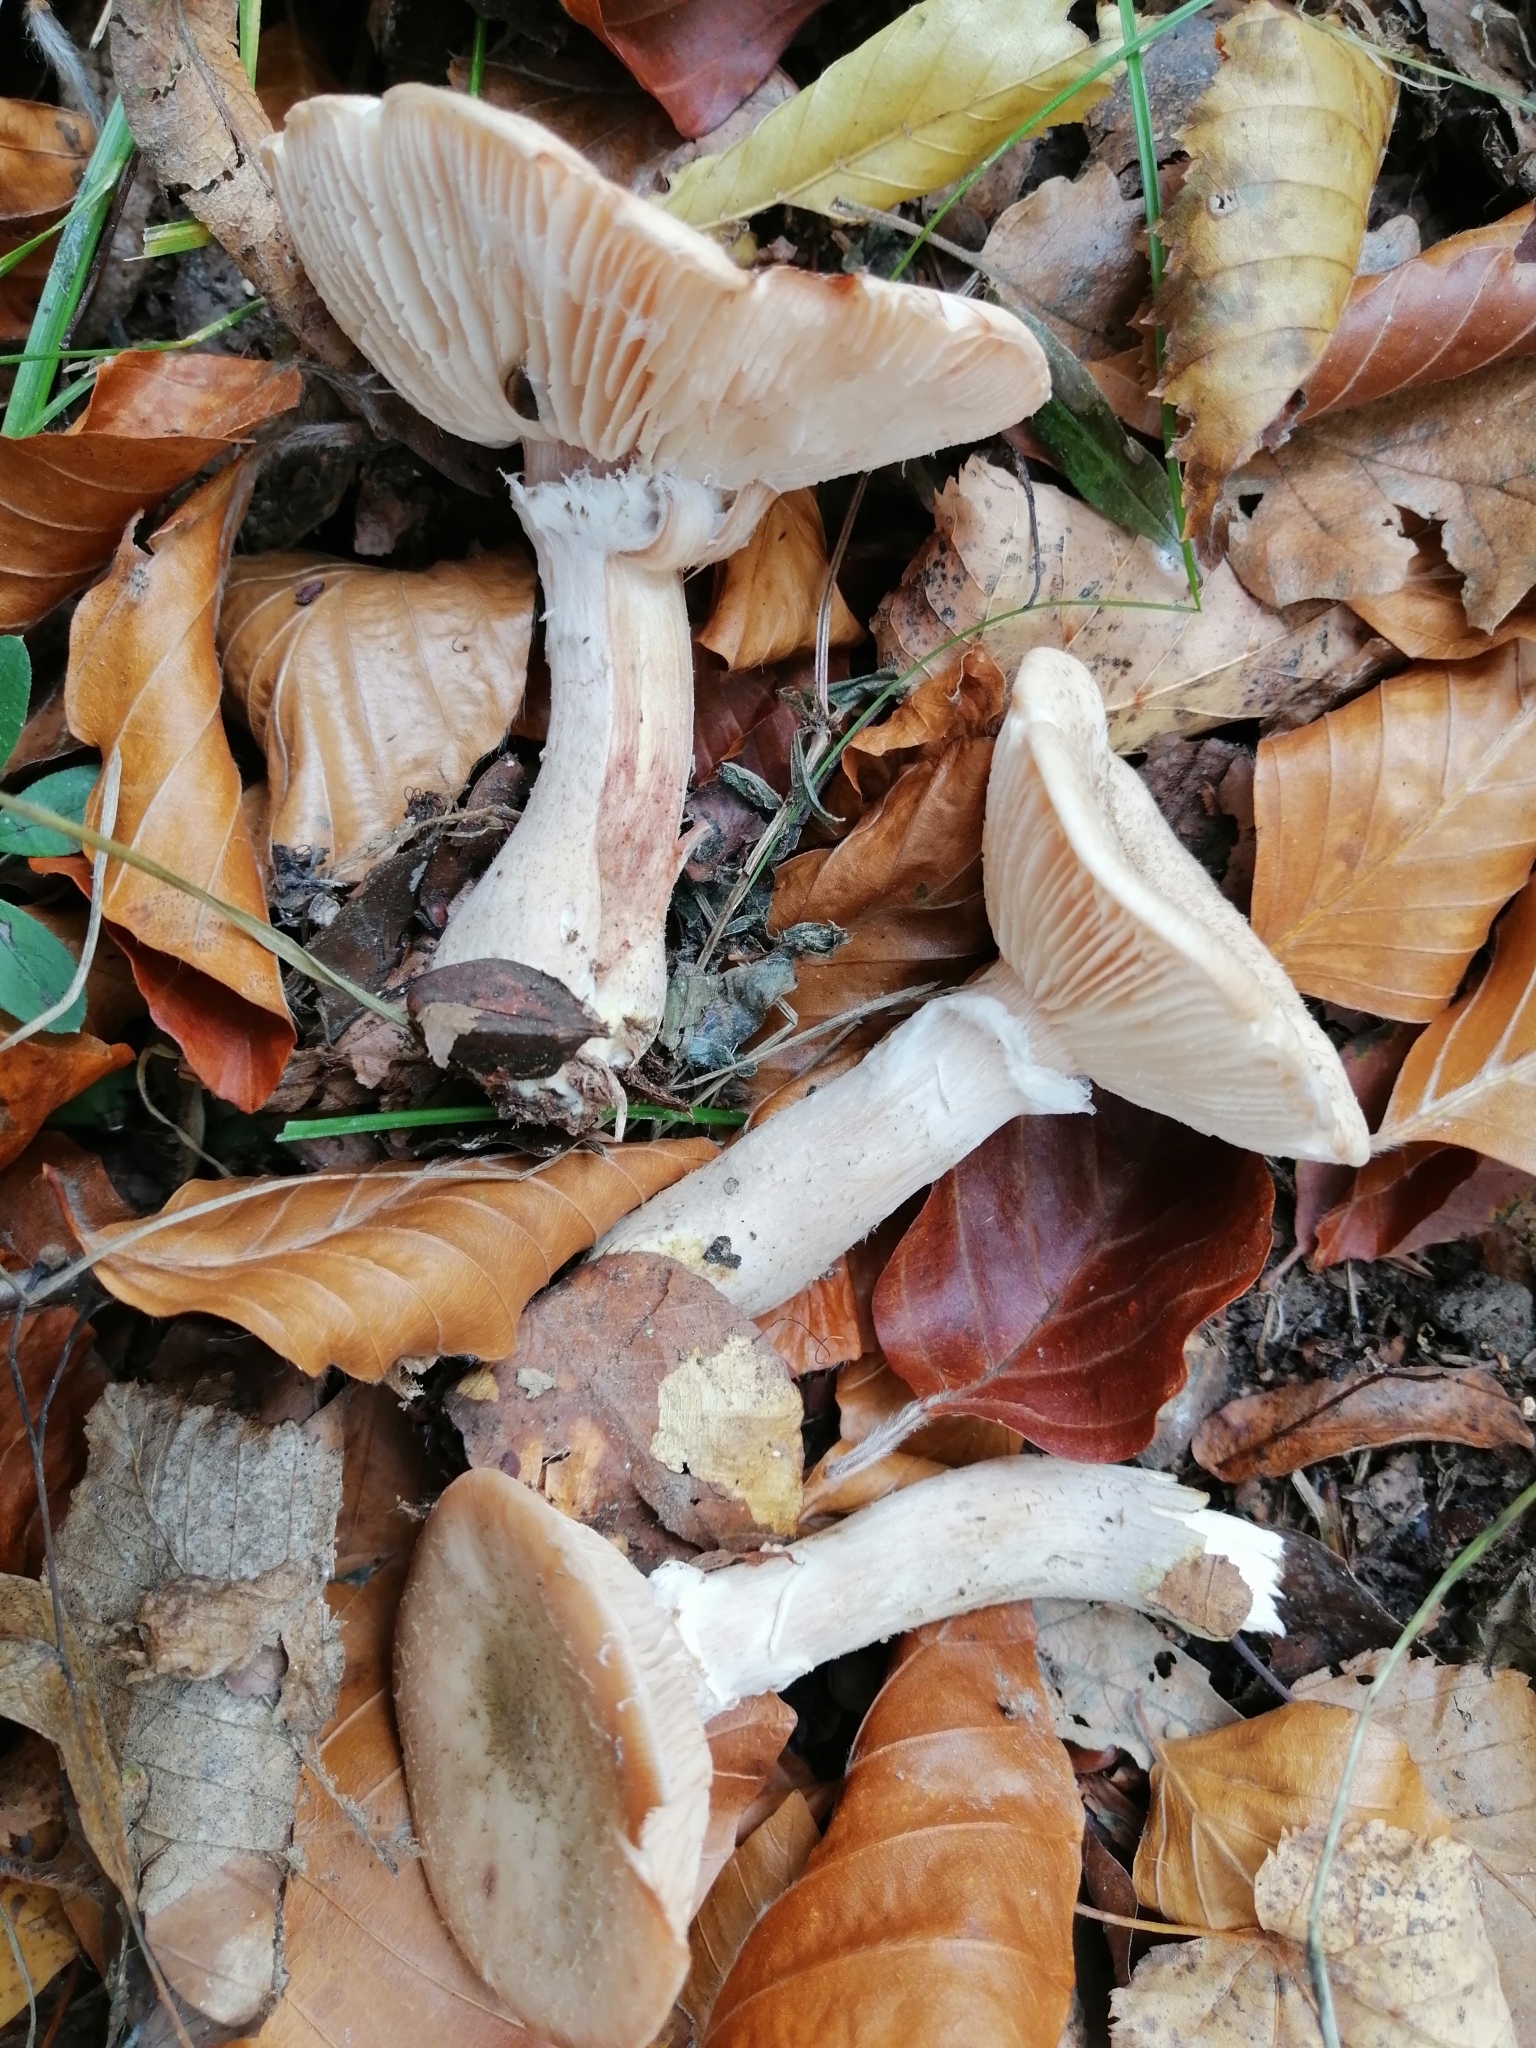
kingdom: Fungi
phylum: Basidiomycota
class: Agaricomycetes
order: Agaricales
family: Physalacriaceae
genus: Armillaria
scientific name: Armillaria gallica
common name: Bulbous honey fungus
